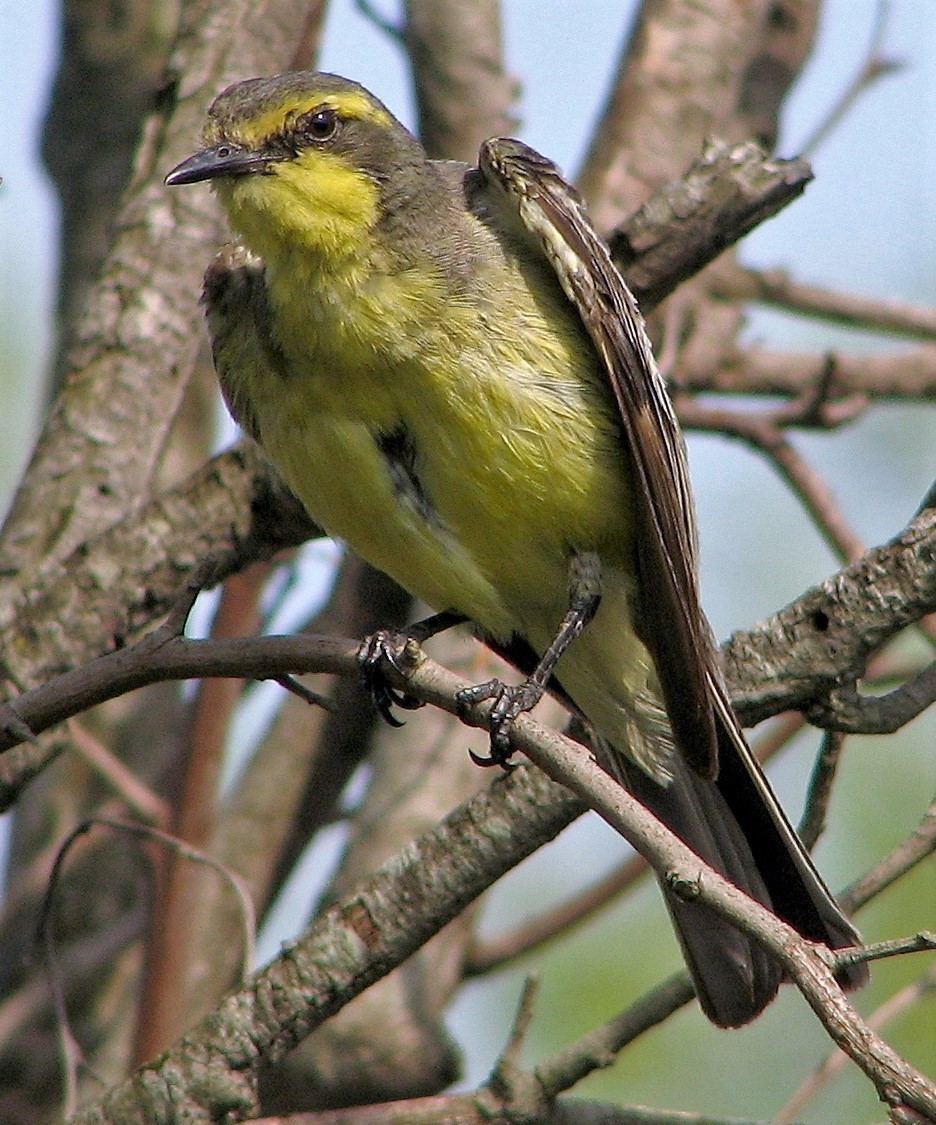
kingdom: Animalia
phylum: Chordata
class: Aves
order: Passeriformes
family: Tyrannidae
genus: Satrapa
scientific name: Satrapa icterophrys
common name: Yellow-browed tyrant
